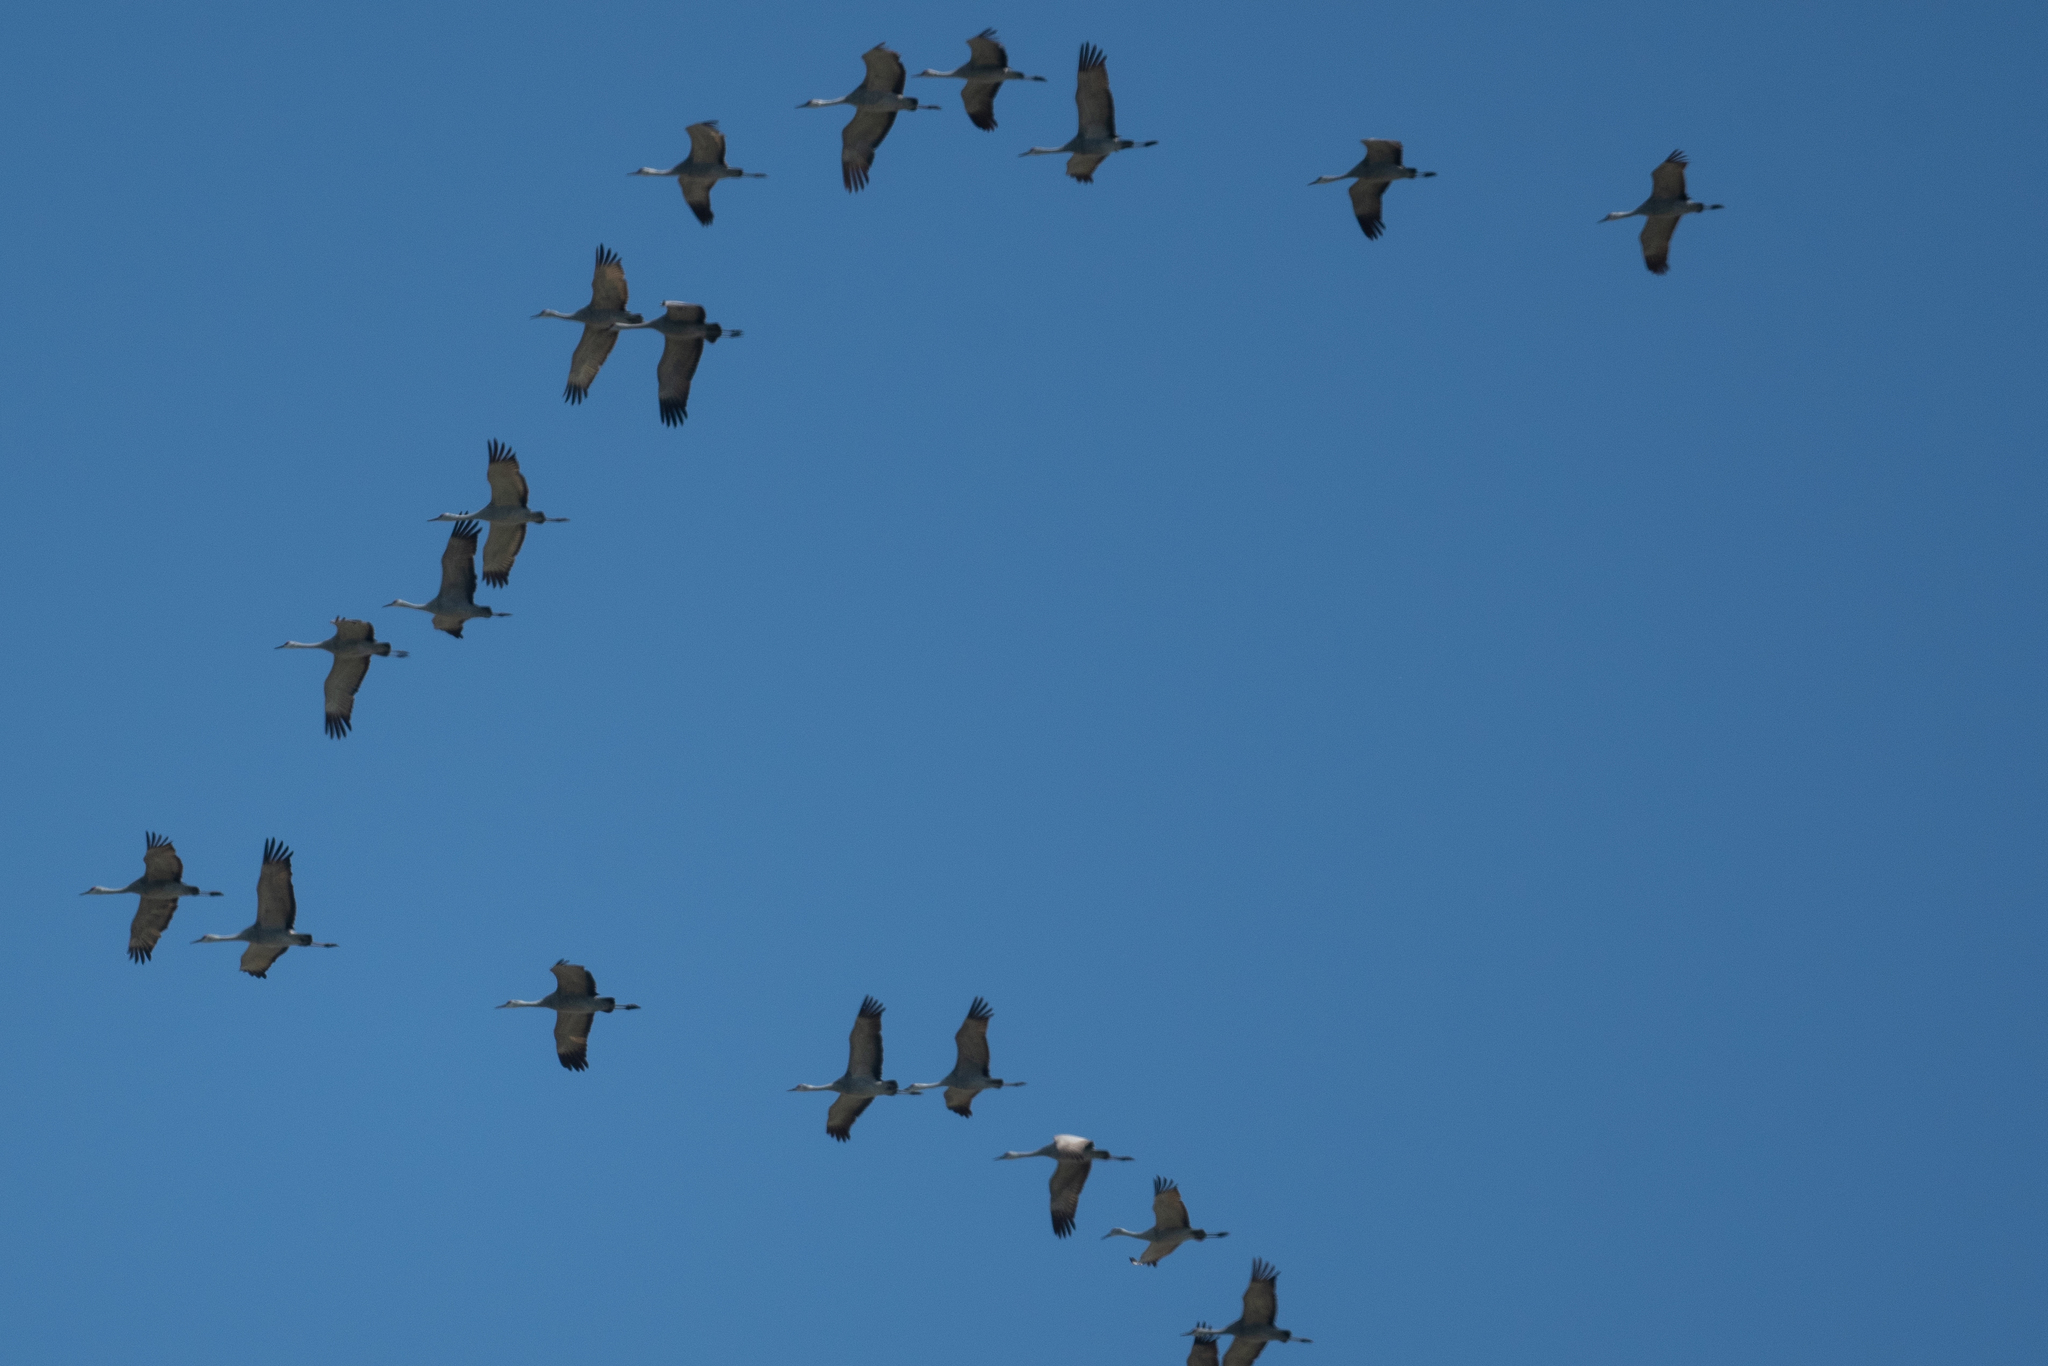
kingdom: Animalia
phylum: Chordata
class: Aves
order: Gruiformes
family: Gruidae
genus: Grus
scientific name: Grus canadensis
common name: Sandhill crane
